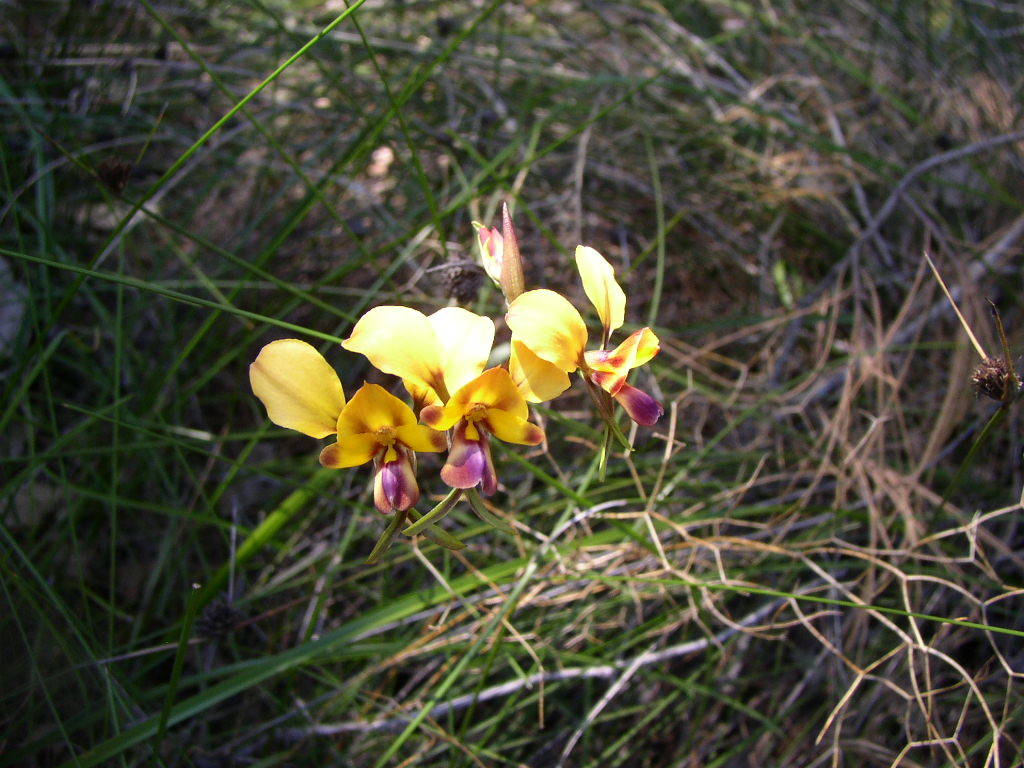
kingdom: Plantae
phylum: Tracheophyta
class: Liliopsida
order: Asparagales
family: Orchidaceae
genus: Diuris
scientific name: Diuris magnifica
